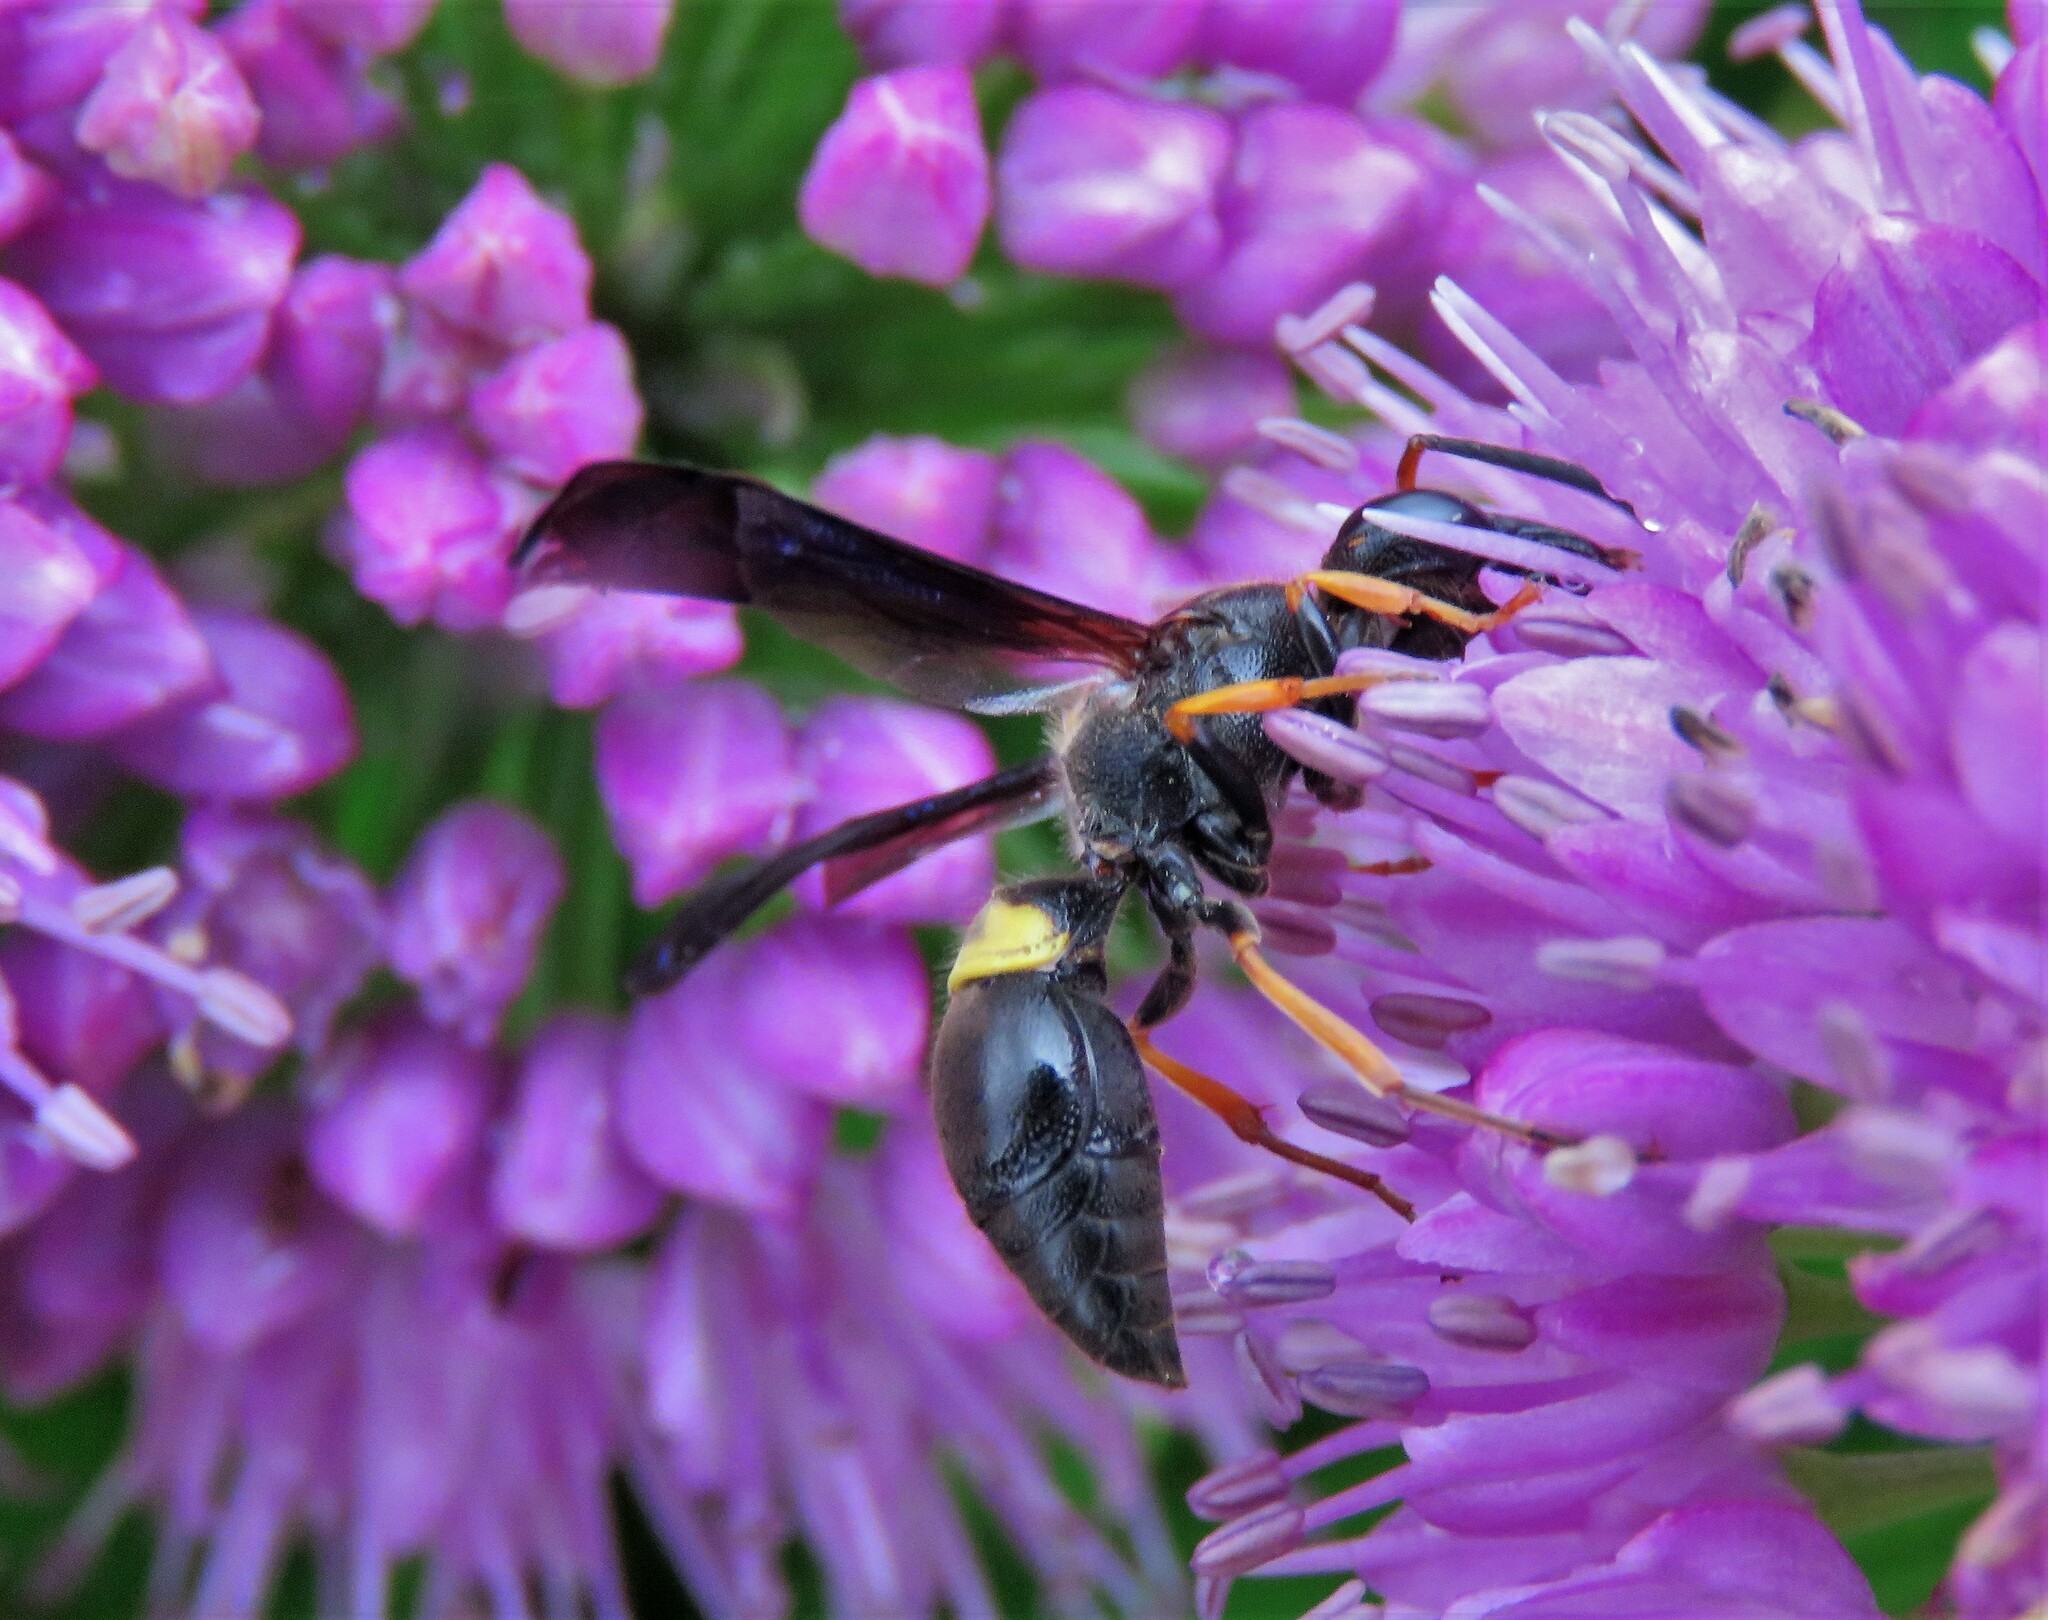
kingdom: Animalia
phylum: Arthropoda
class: Insecta
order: Hymenoptera
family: Vespidae
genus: Ancistrocerus
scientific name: Ancistrocerus unifasciatus
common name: One-banded mason wasp
